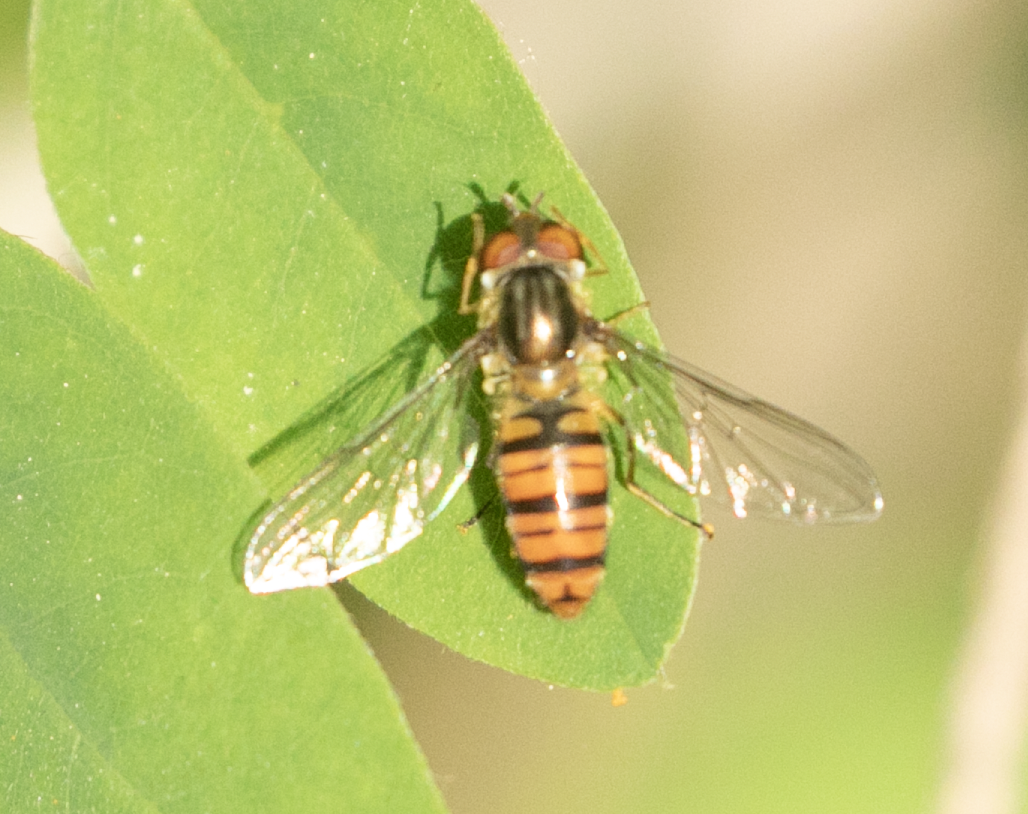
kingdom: Animalia
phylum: Arthropoda
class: Insecta
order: Diptera
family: Syrphidae
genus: Episyrphus
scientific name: Episyrphus balteatus
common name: Marmalade hoverfly
